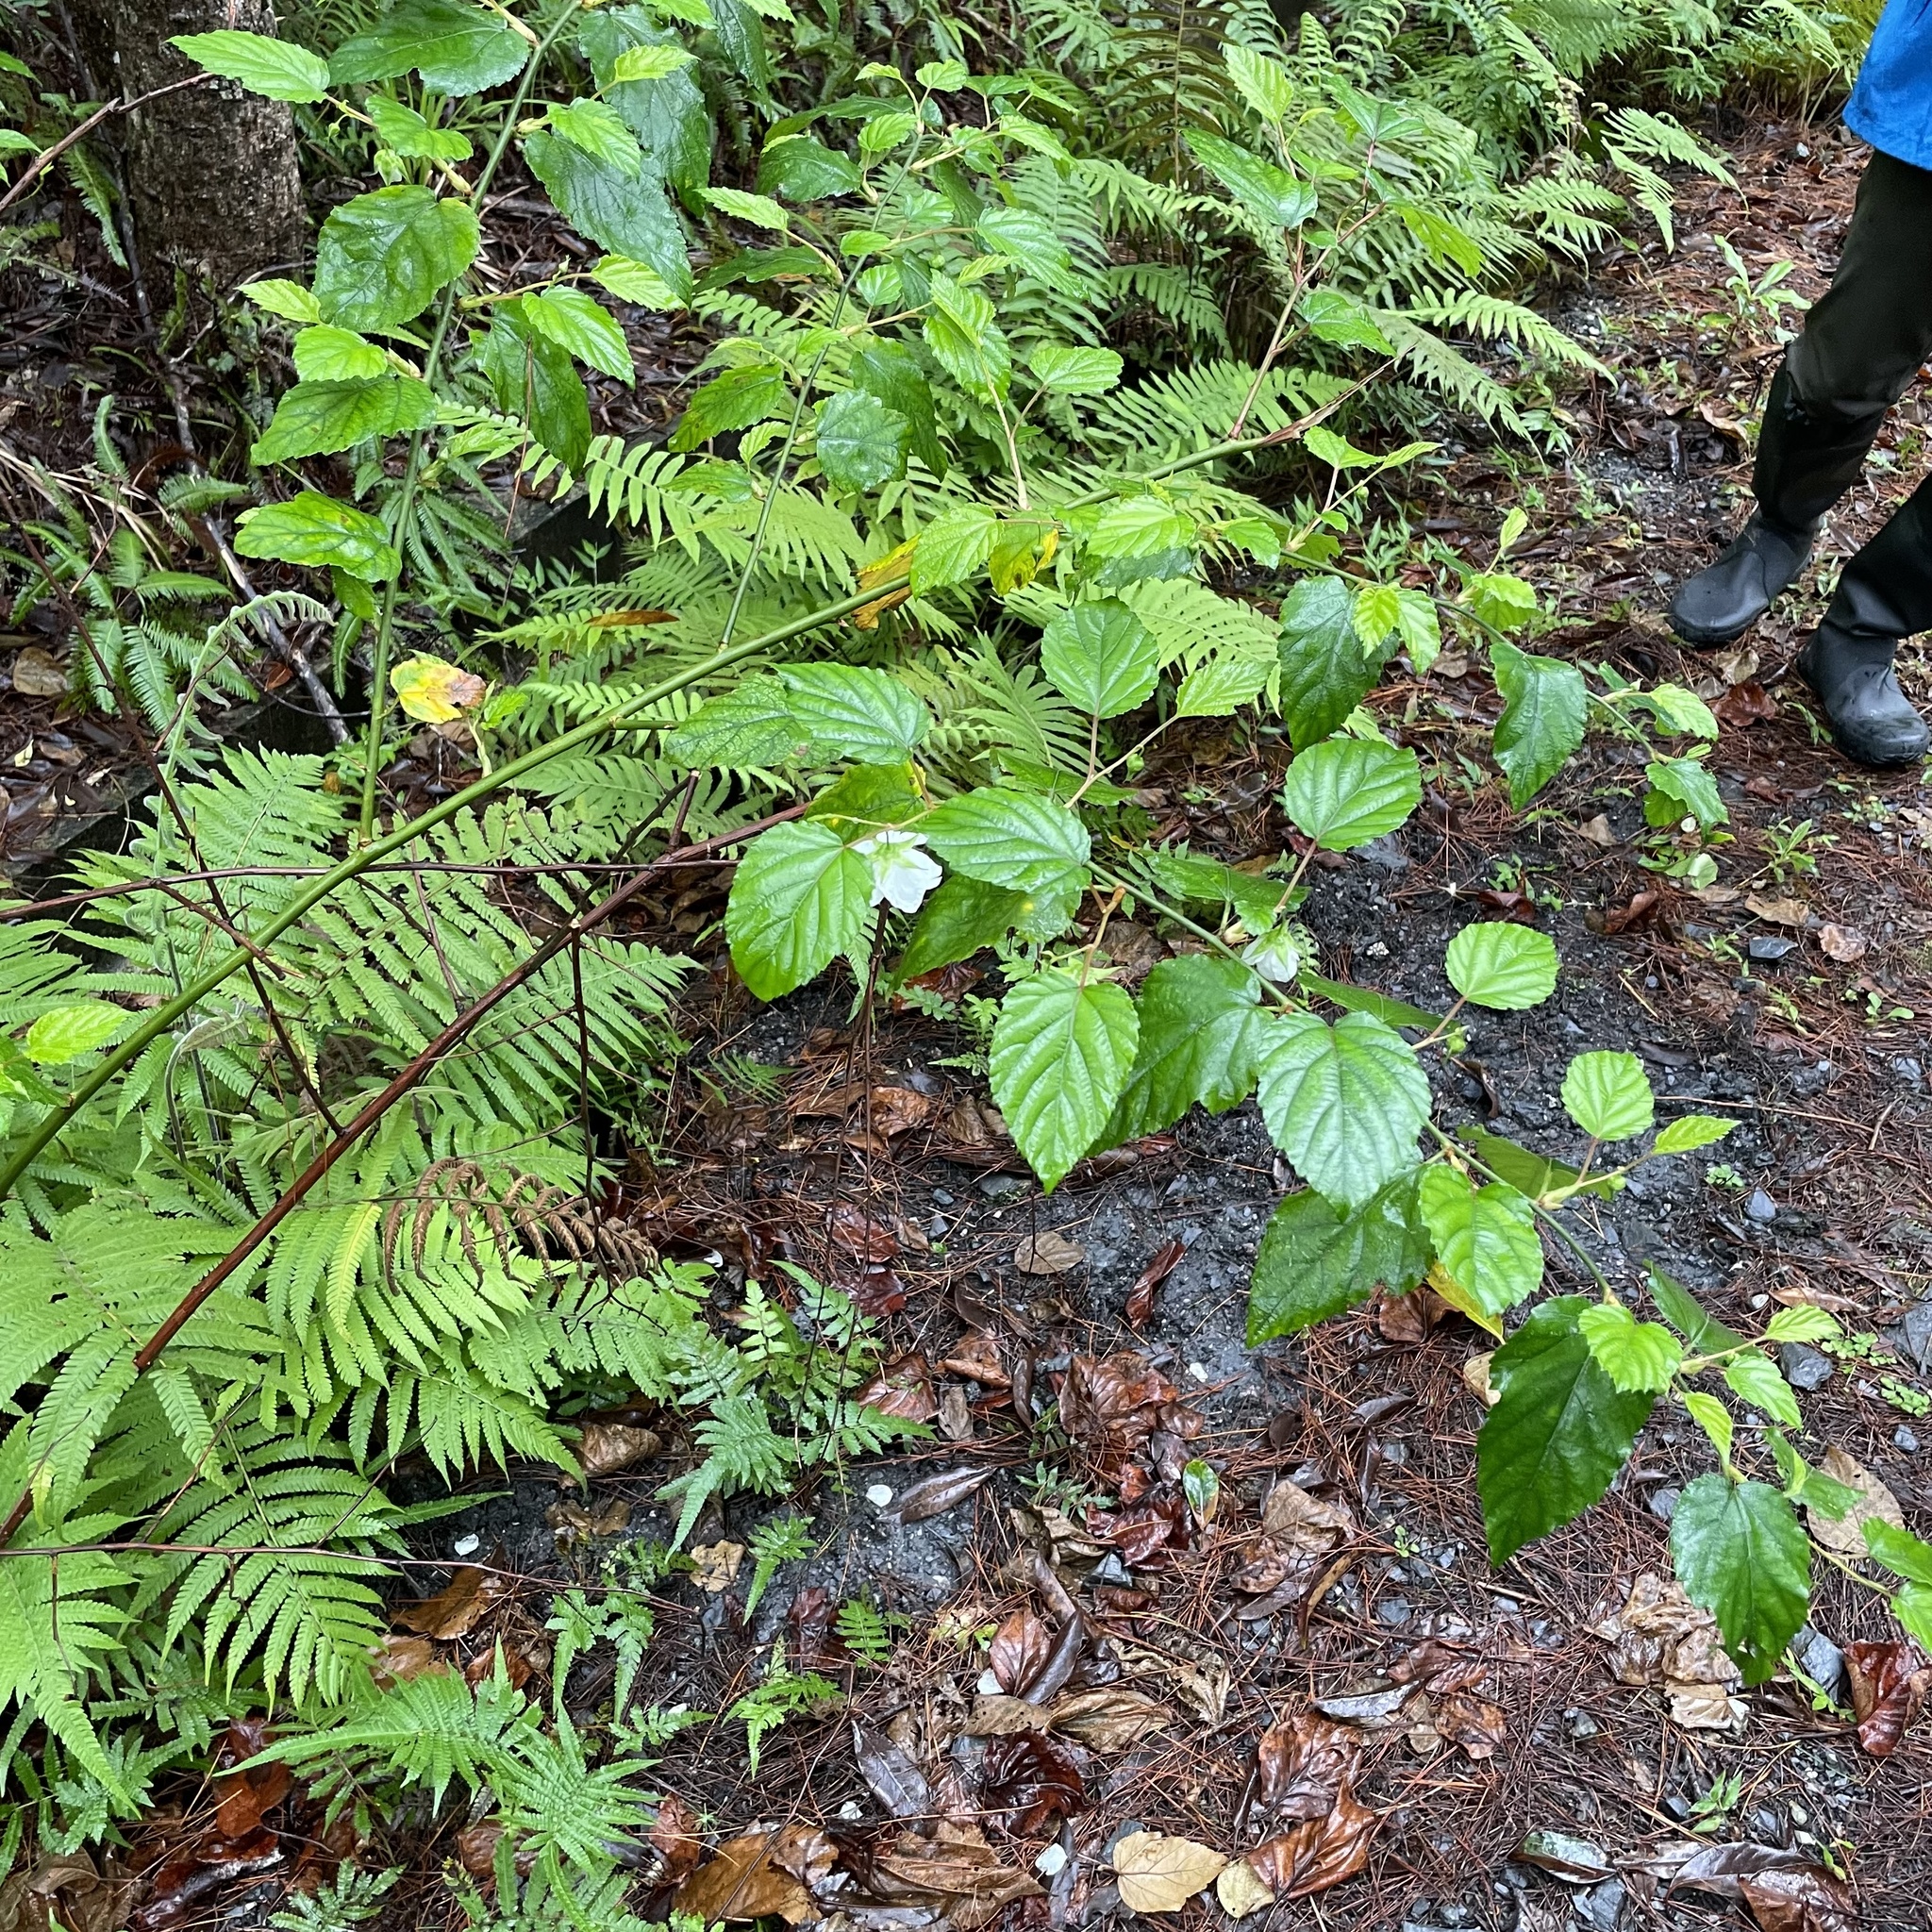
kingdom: Plantae
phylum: Tracheophyta
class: Magnoliopsida
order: Rosales
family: Rosaceae
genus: Rubus
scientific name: Rubus grayanus
